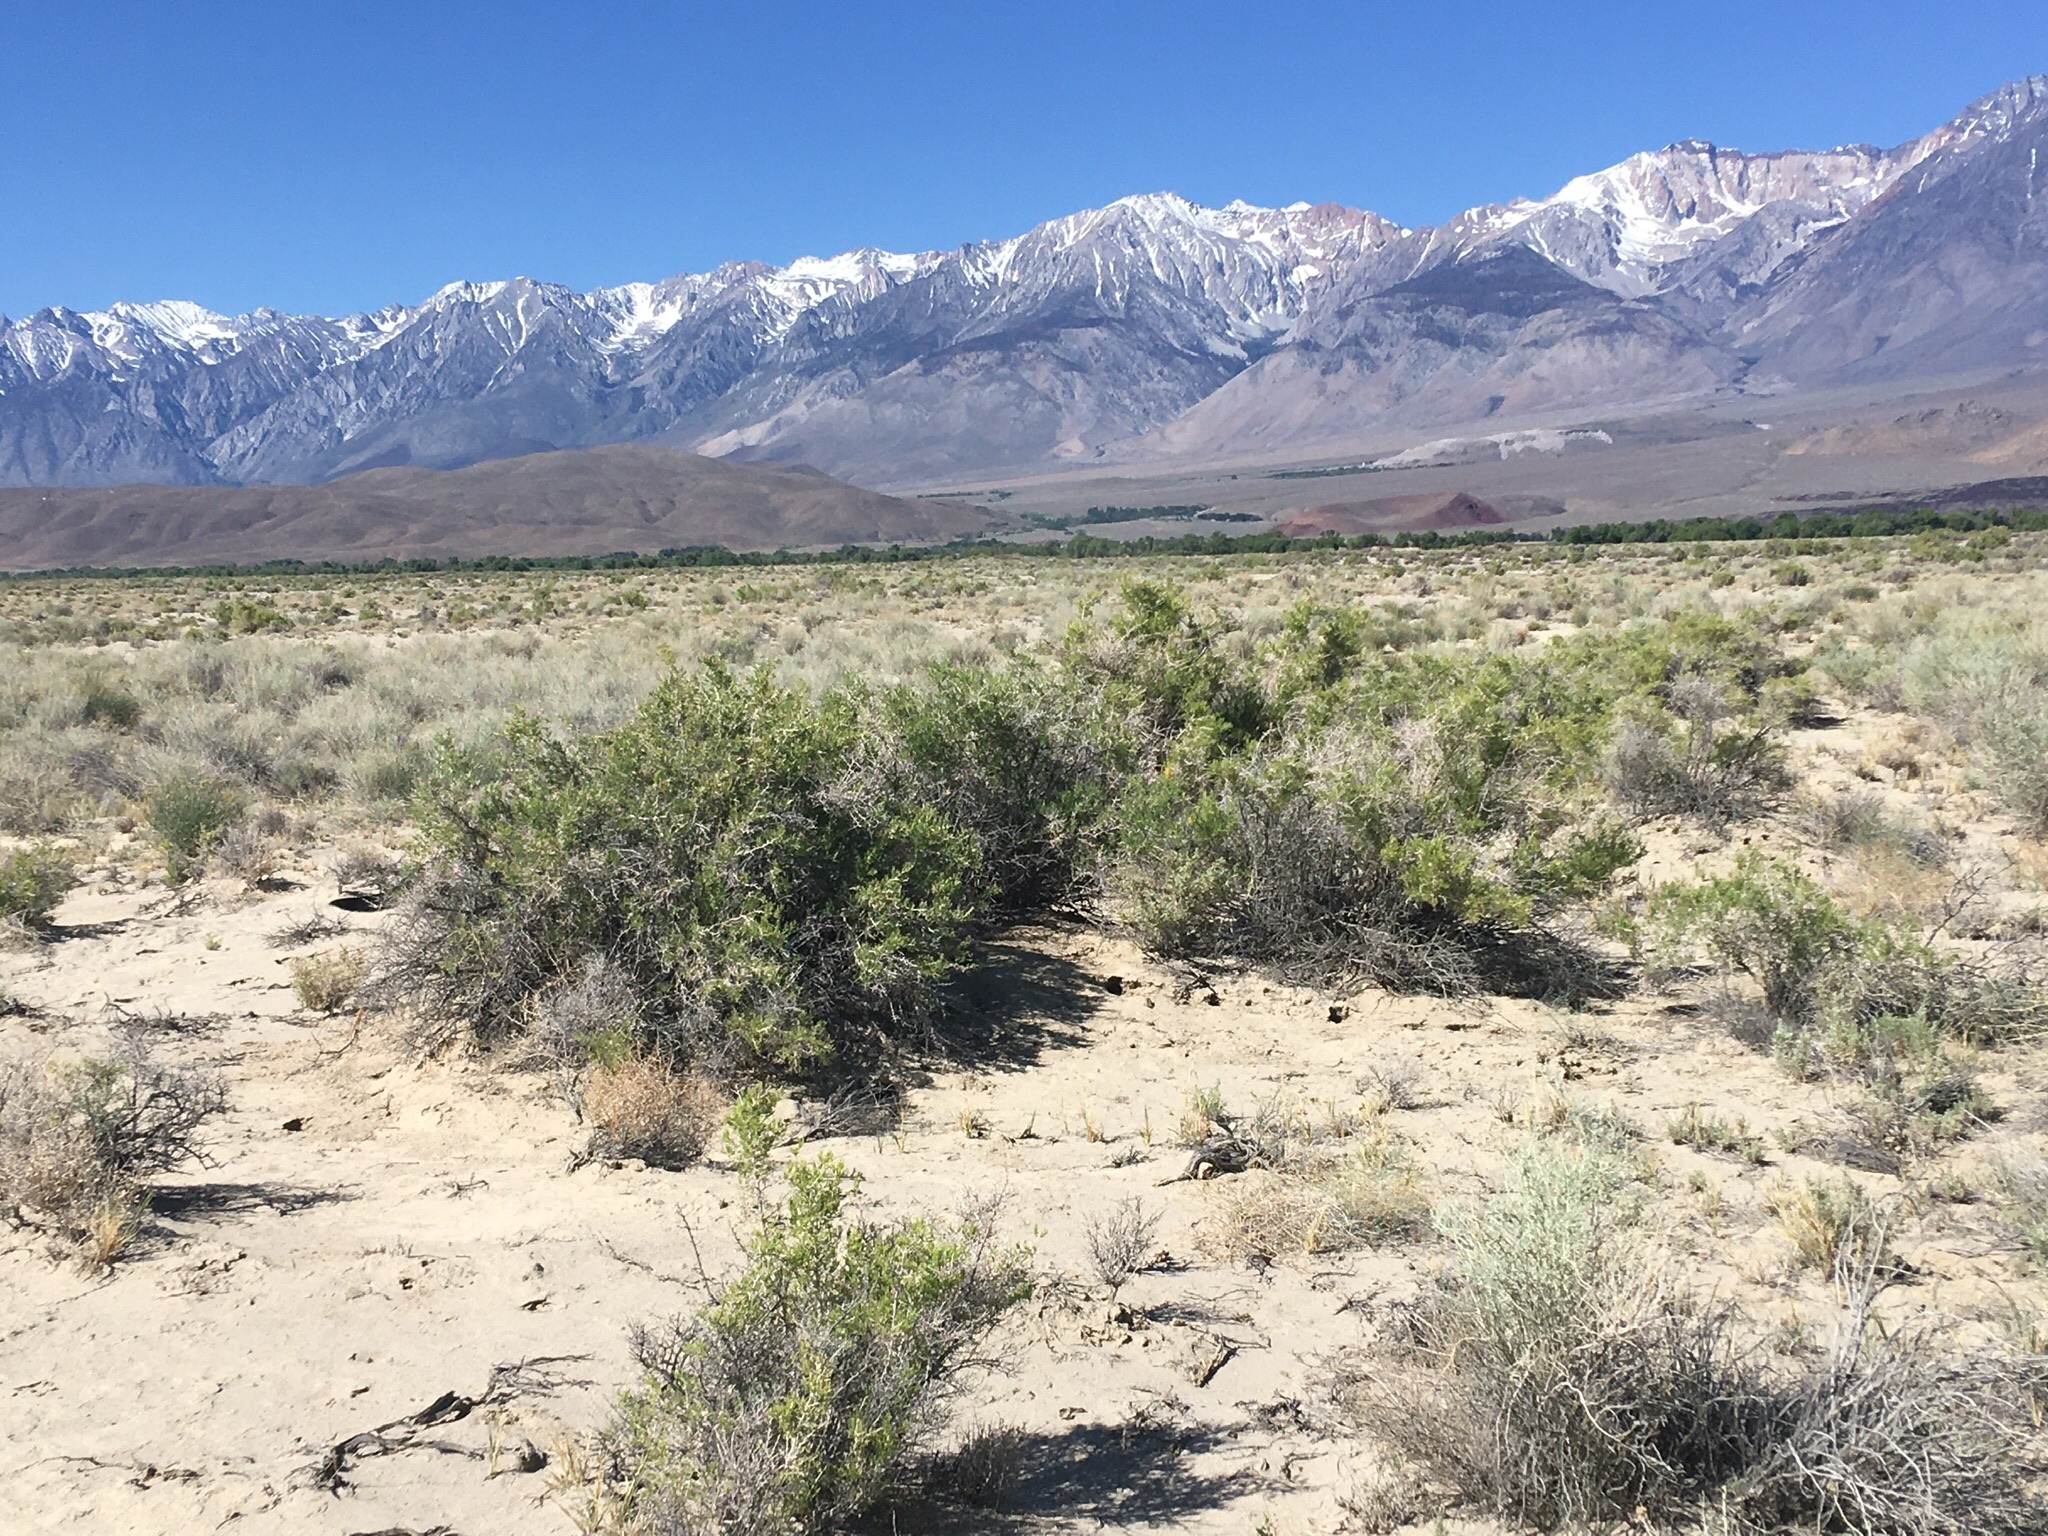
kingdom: Plantae
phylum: Tracheophyta
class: Magnoliopsida
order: Caryophyllales
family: Sarcobataceae
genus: Sarcobatus
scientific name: Sarcobatus vermiculatus
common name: Greasewood
